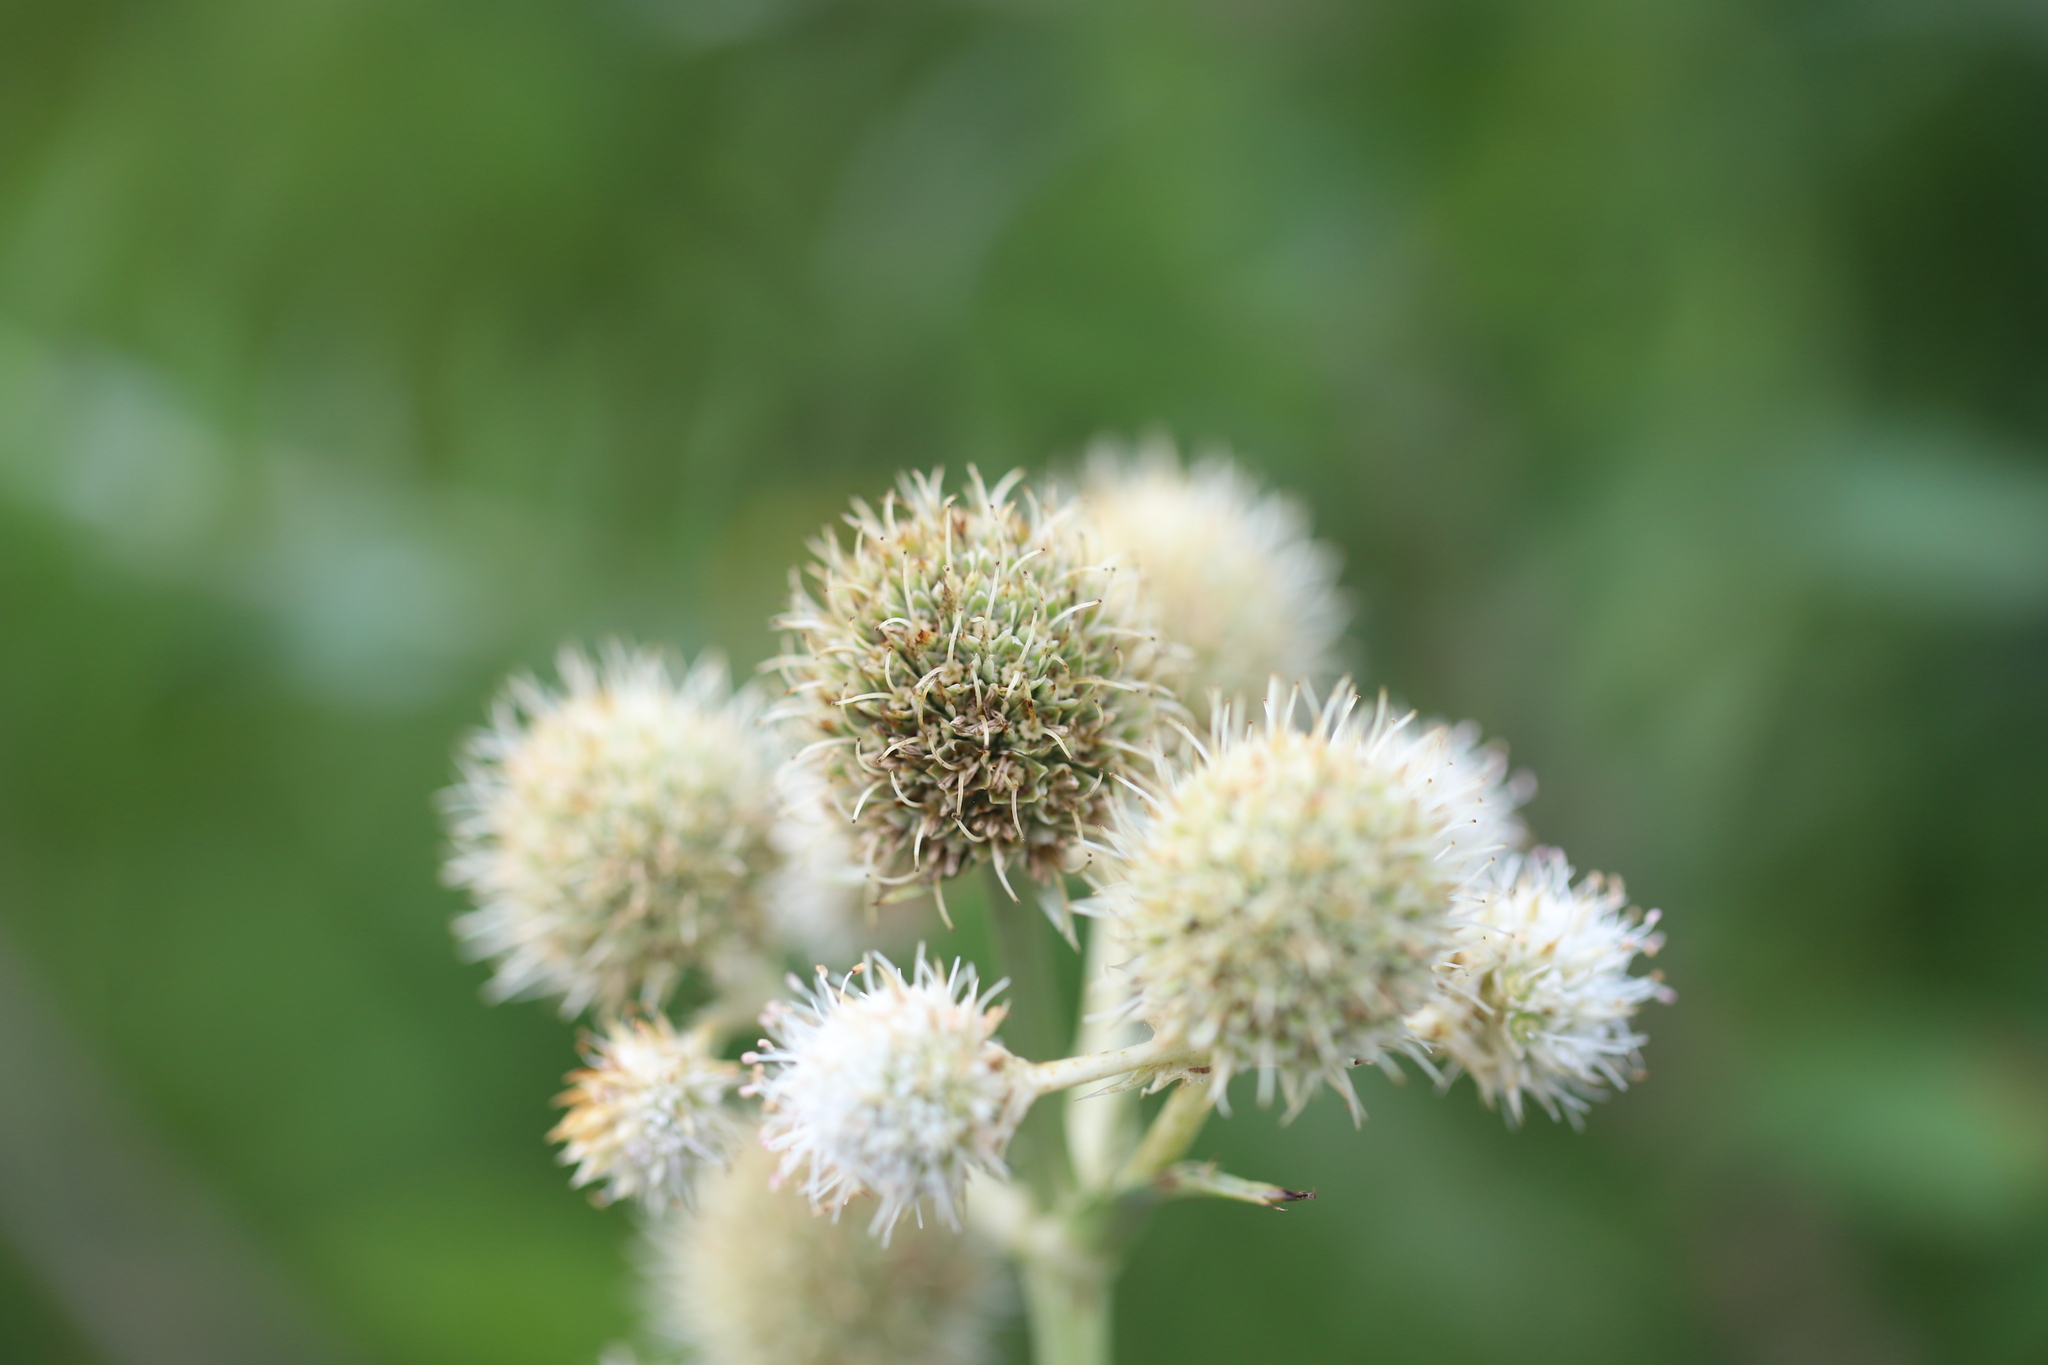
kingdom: Plantae
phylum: Tracheophyta
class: Magnoliopsida
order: Apiales
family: Apiaceae
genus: Eryngium
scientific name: Eryngium yuccifolium
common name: Button eryngo
